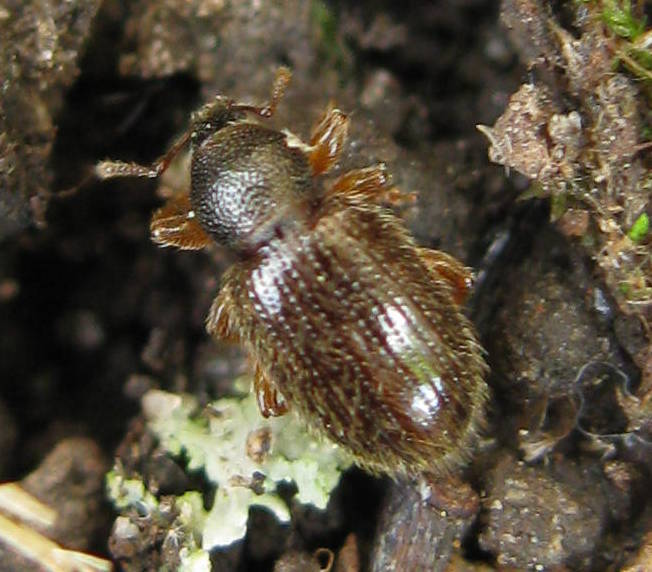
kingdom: Animalia
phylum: Arthropoda
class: Insecta
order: Coleoptera
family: Curculionidae
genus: Exomias
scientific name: Exomias pellucidus
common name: Hairy spider weevil
